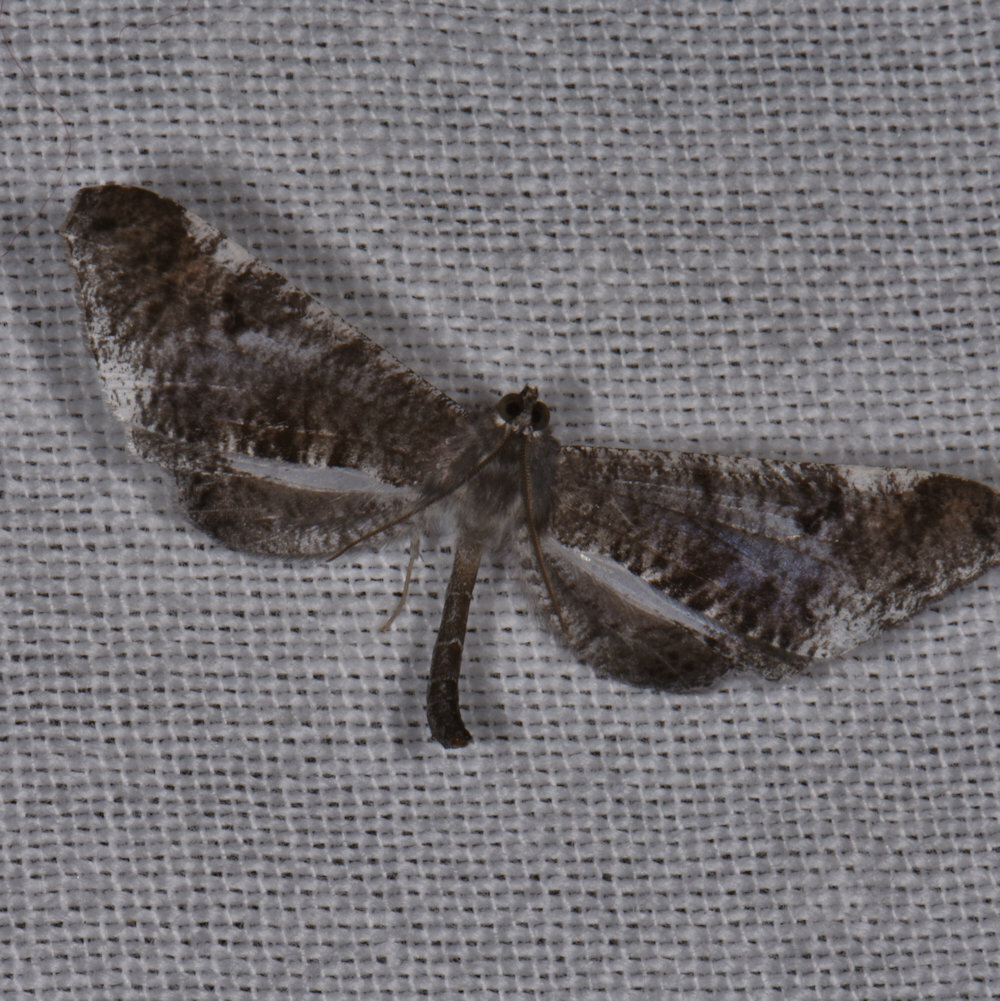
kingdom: Animalia
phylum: Arthropoda
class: Insecta
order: Lepidoptera
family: Hedylidae
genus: Macrosoma
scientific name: Macrosoma hyacinthina
